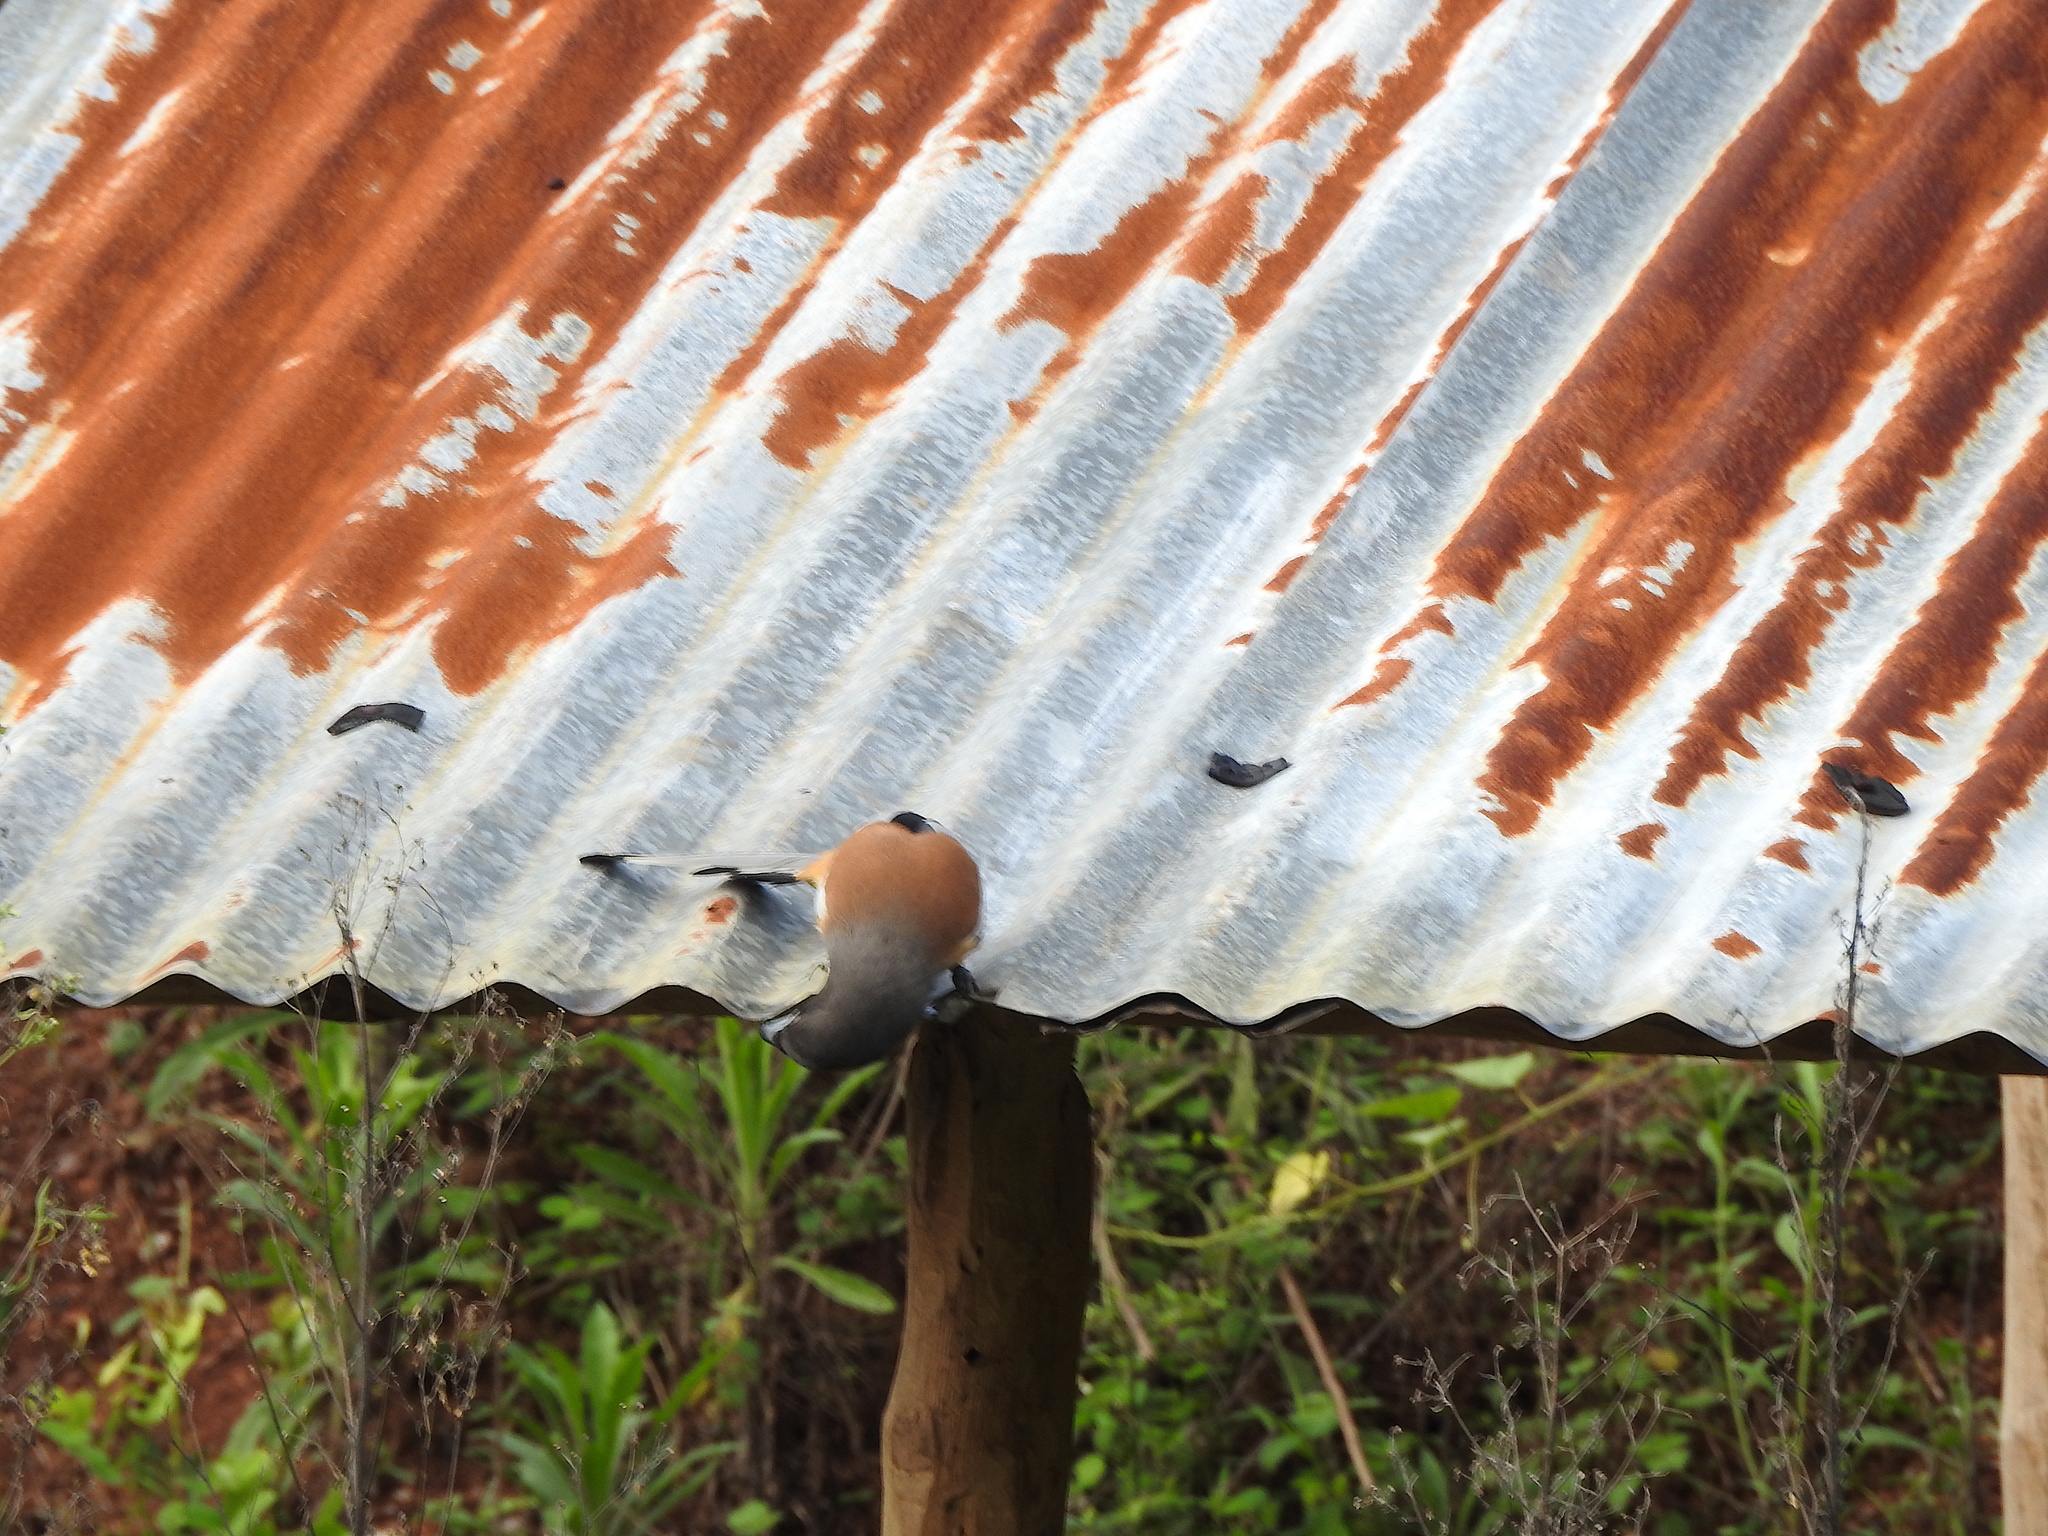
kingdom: Animalia
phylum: Chordata
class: Aves
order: Passeriformes
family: Corvidae
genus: Dendrocitta
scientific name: Dendrocitta vagabunda
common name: Rufous treepie
